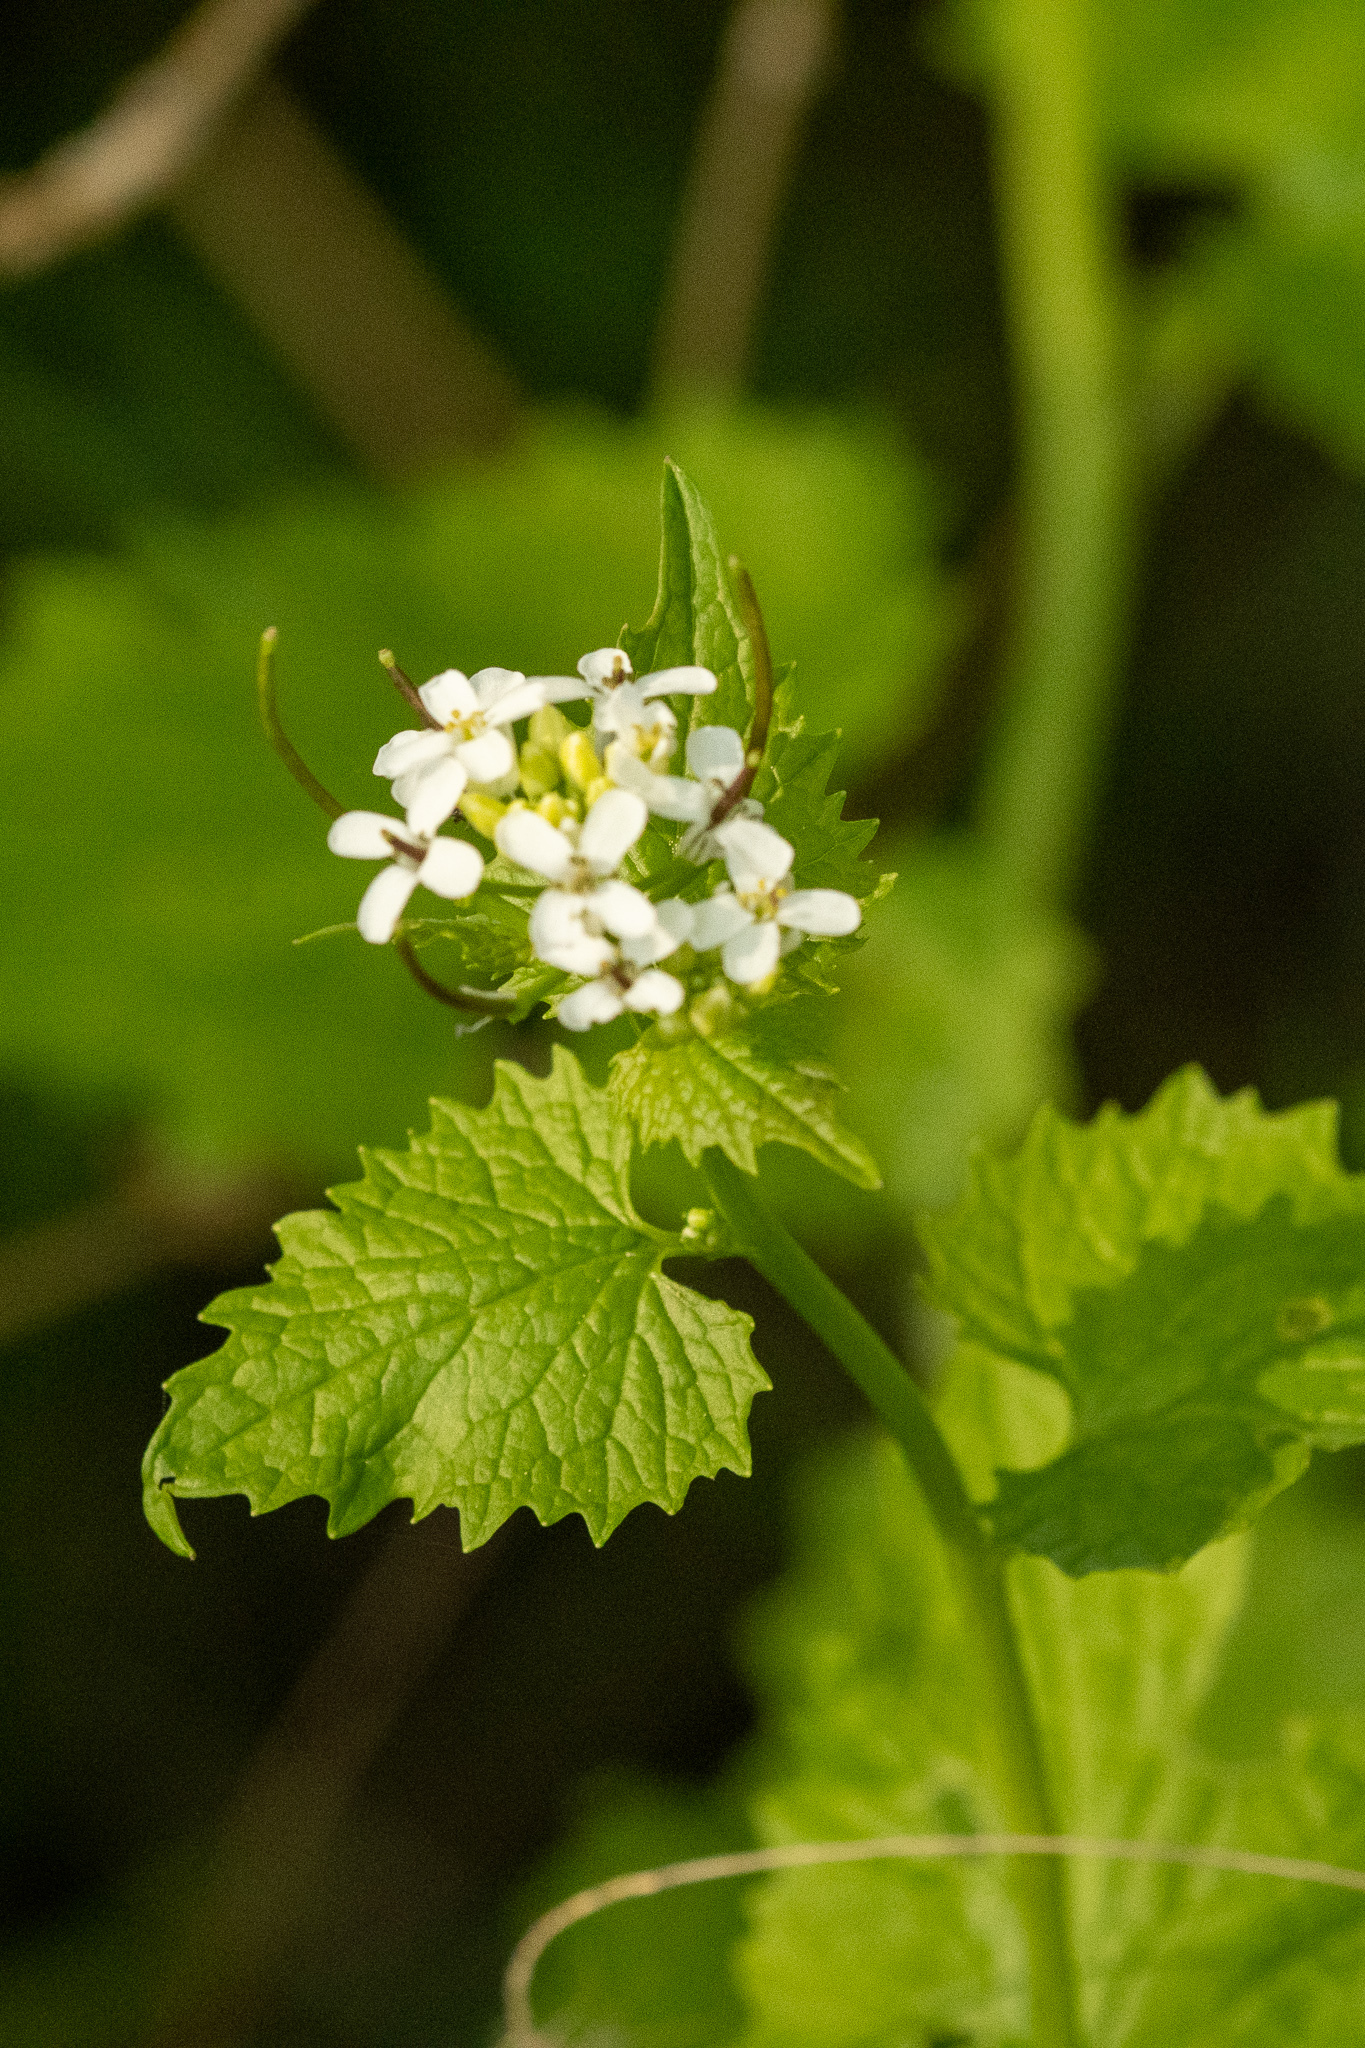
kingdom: Plantae
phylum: Tracheophyta
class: Magnoliopsida
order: Brassicales
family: Brassicaceae
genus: Alliaria
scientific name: Alliaria petiolata
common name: Garlic mustard
